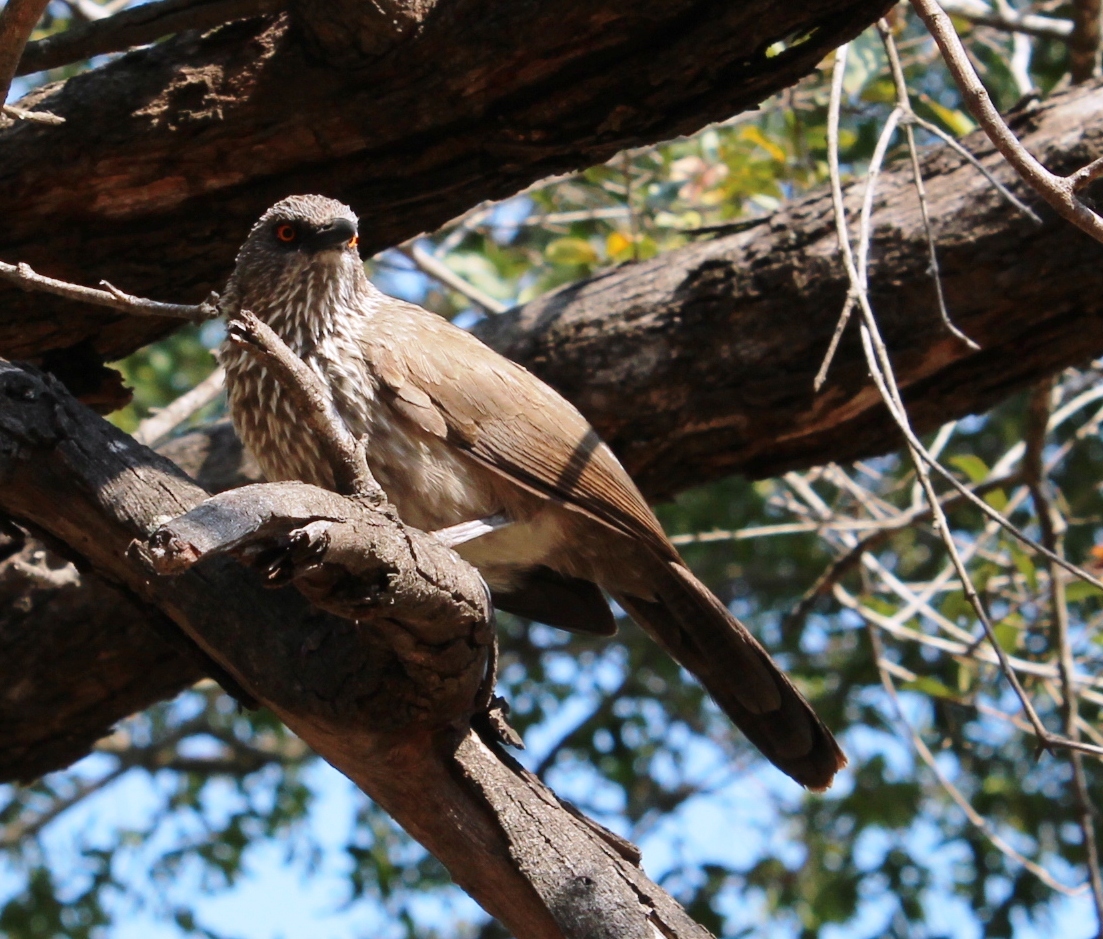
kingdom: Animalia
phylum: Chordata
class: Aves
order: Passeriformes
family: Leiothrichidae
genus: Turdoides
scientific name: Turdoides jardineii
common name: Arrow-marked babbler
